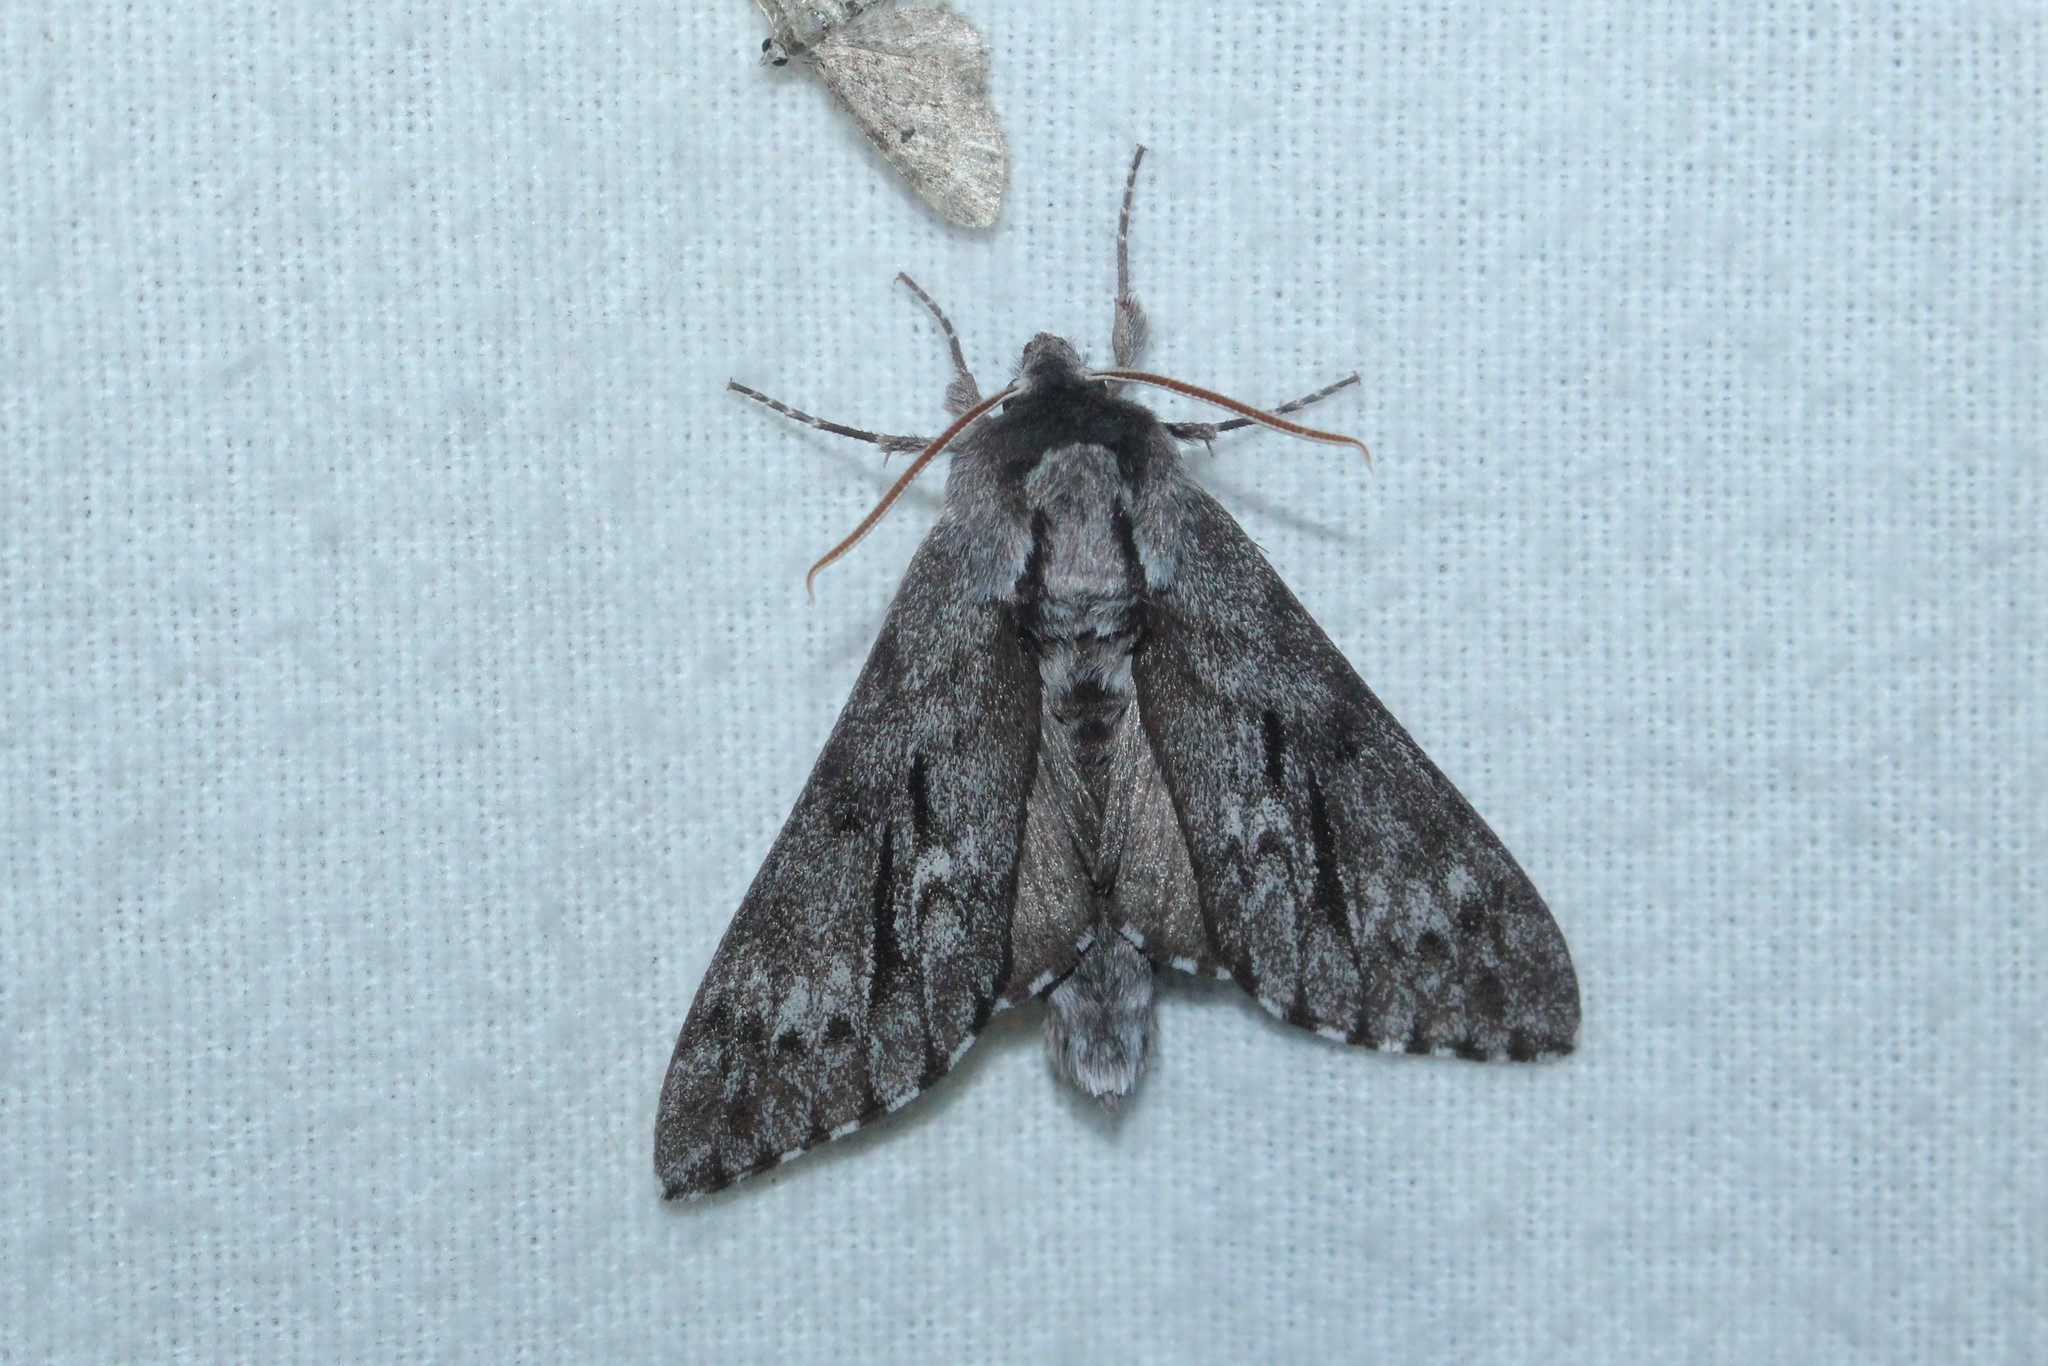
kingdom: Animalia
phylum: Arthropoda
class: Insecta
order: Lepidoptera
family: Sphingidae
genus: Lapara
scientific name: Lapara bombycoides
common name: Northern pine sphinx
